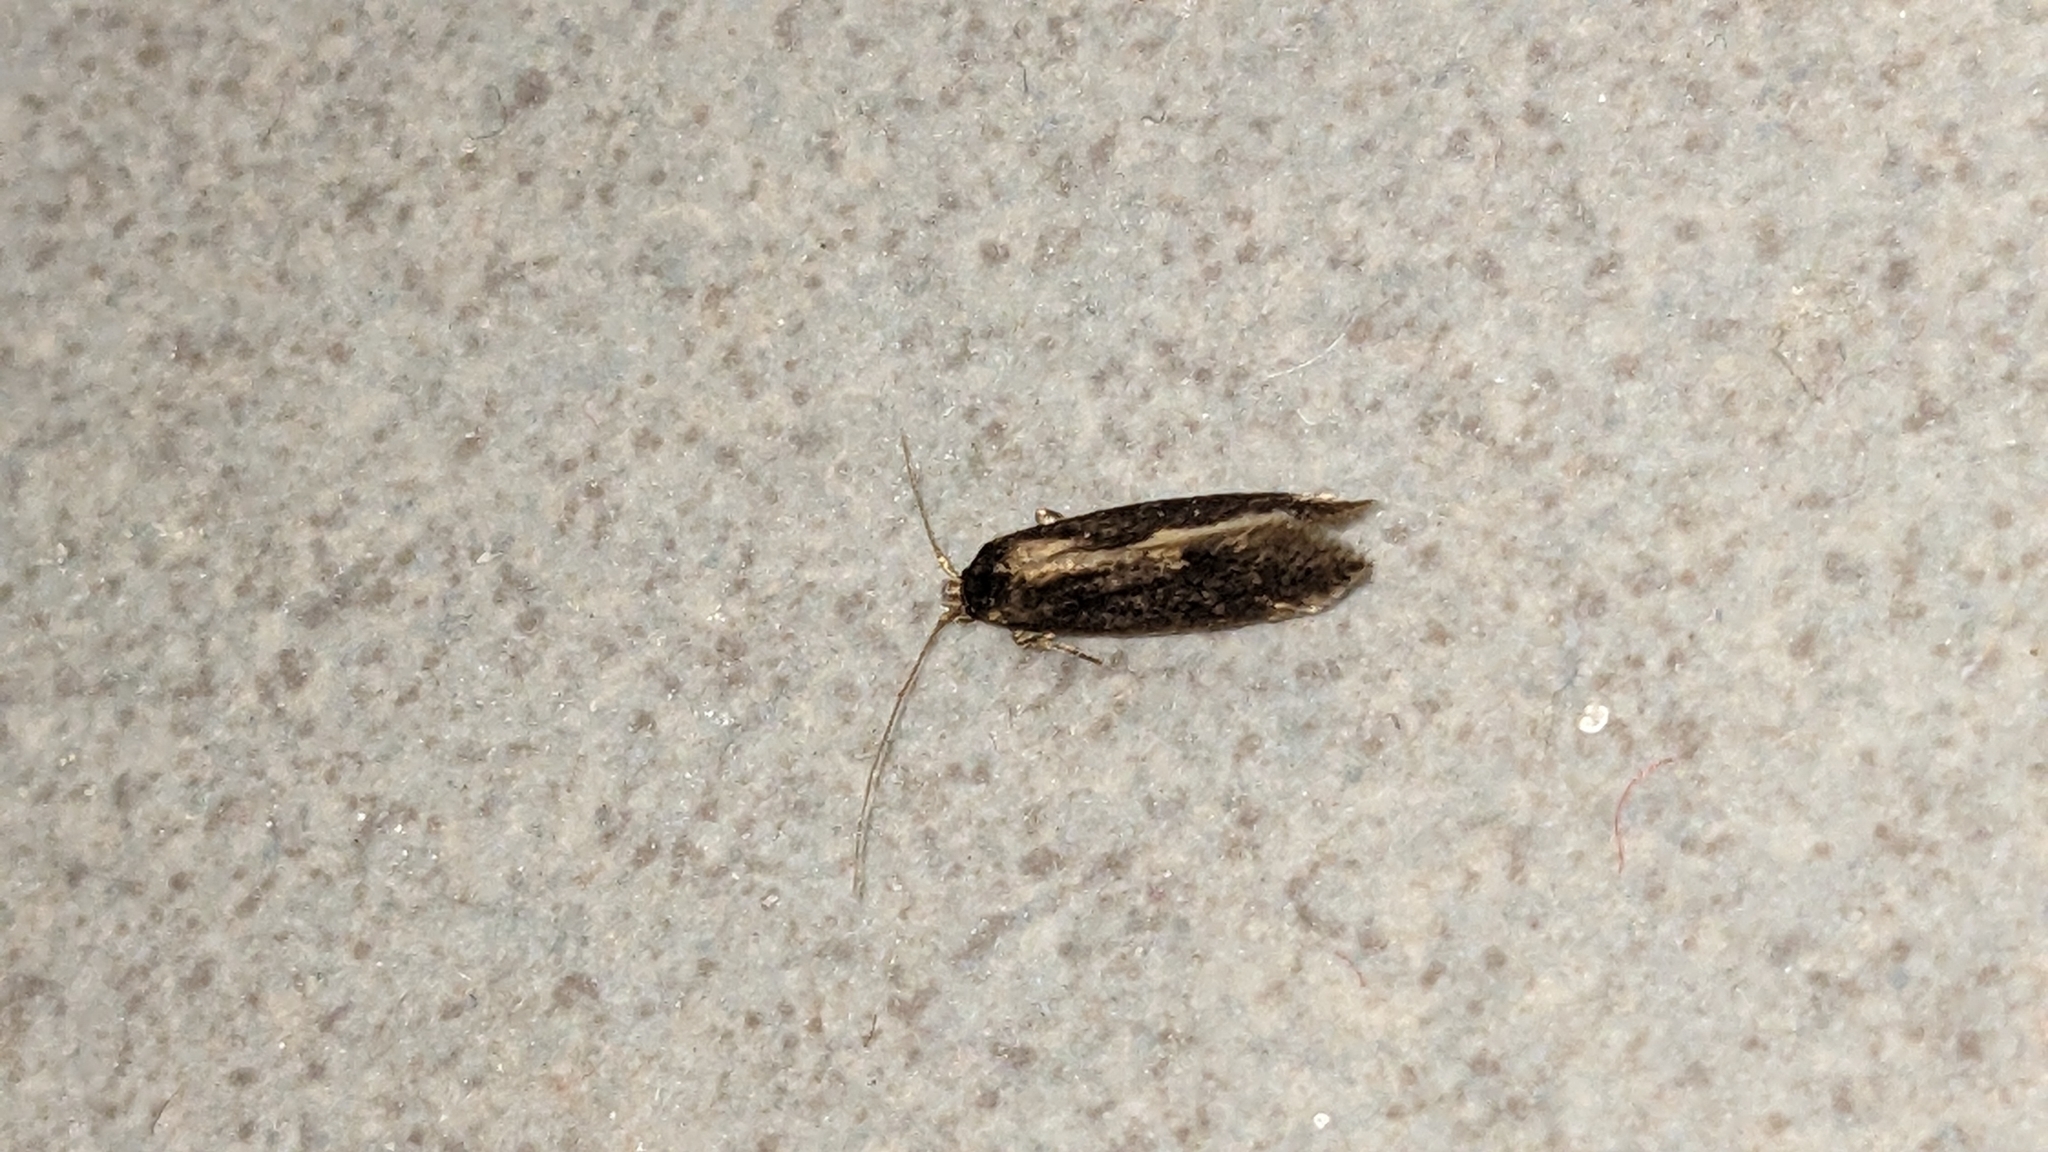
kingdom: Animalia
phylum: Arthropoda
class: Insecta
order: Lepidoptera
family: Tineidae
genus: Opogona
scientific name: Opogona omoscopa
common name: Moth
